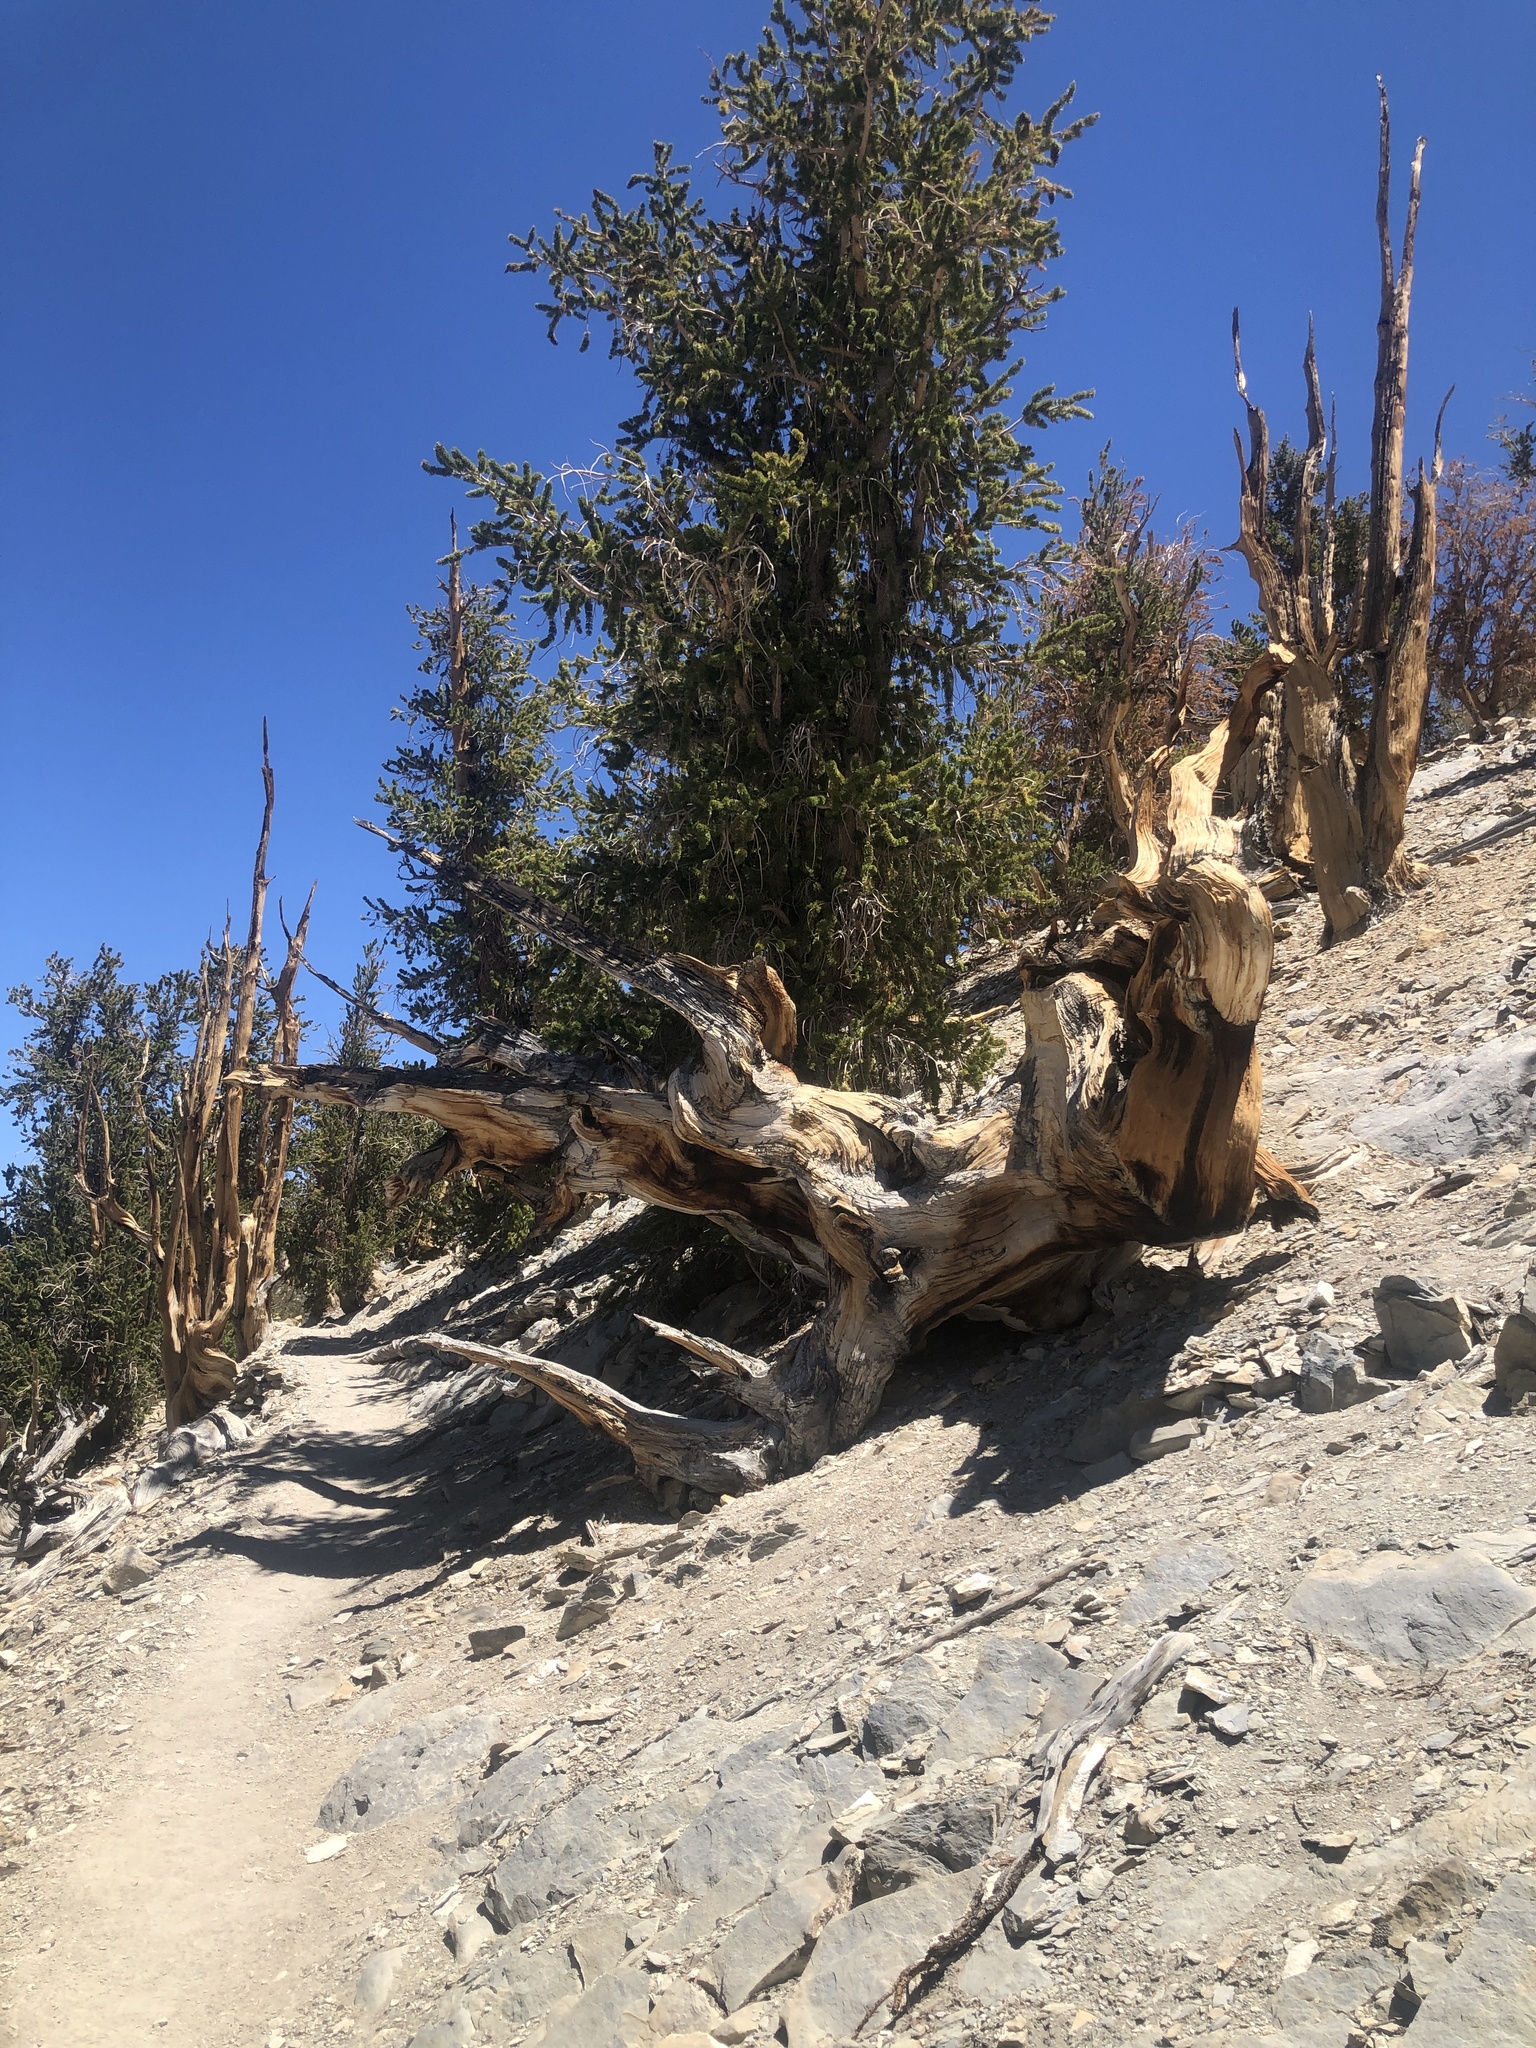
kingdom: Plantae
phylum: Tracheophyta
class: Pinopsida
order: Pinales
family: Pinaceae
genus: Pinus
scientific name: Pinus longaeva
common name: Intermountain bristlecone pine
